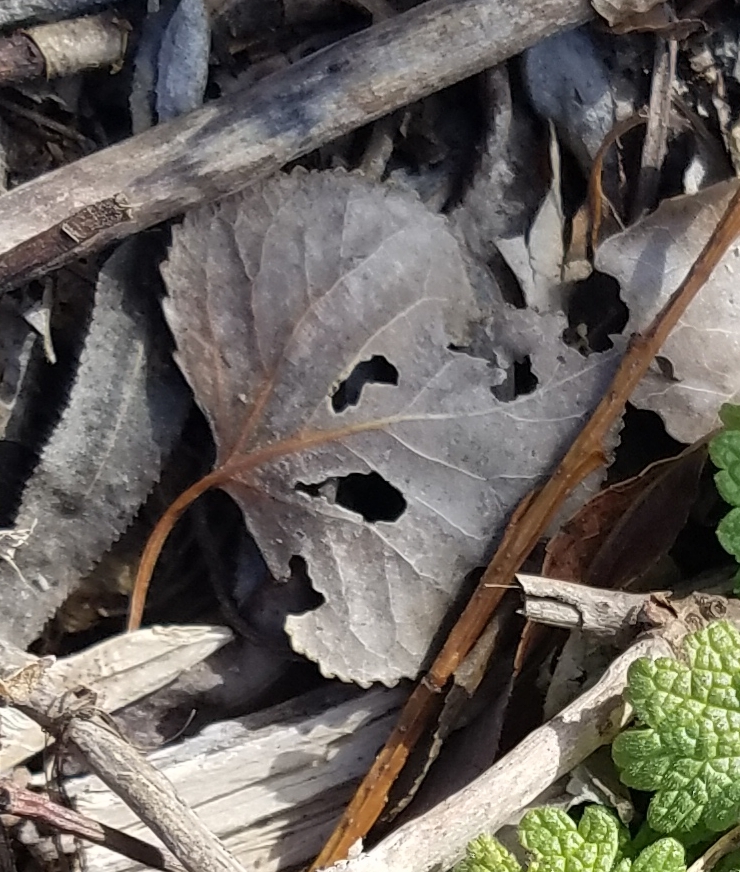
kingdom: Plantae
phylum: Tracheophyta
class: Magnoliopsida
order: Malpighiales
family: Salicaceae
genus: Populus
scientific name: Populus deltoides
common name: Eastern cottonwood
